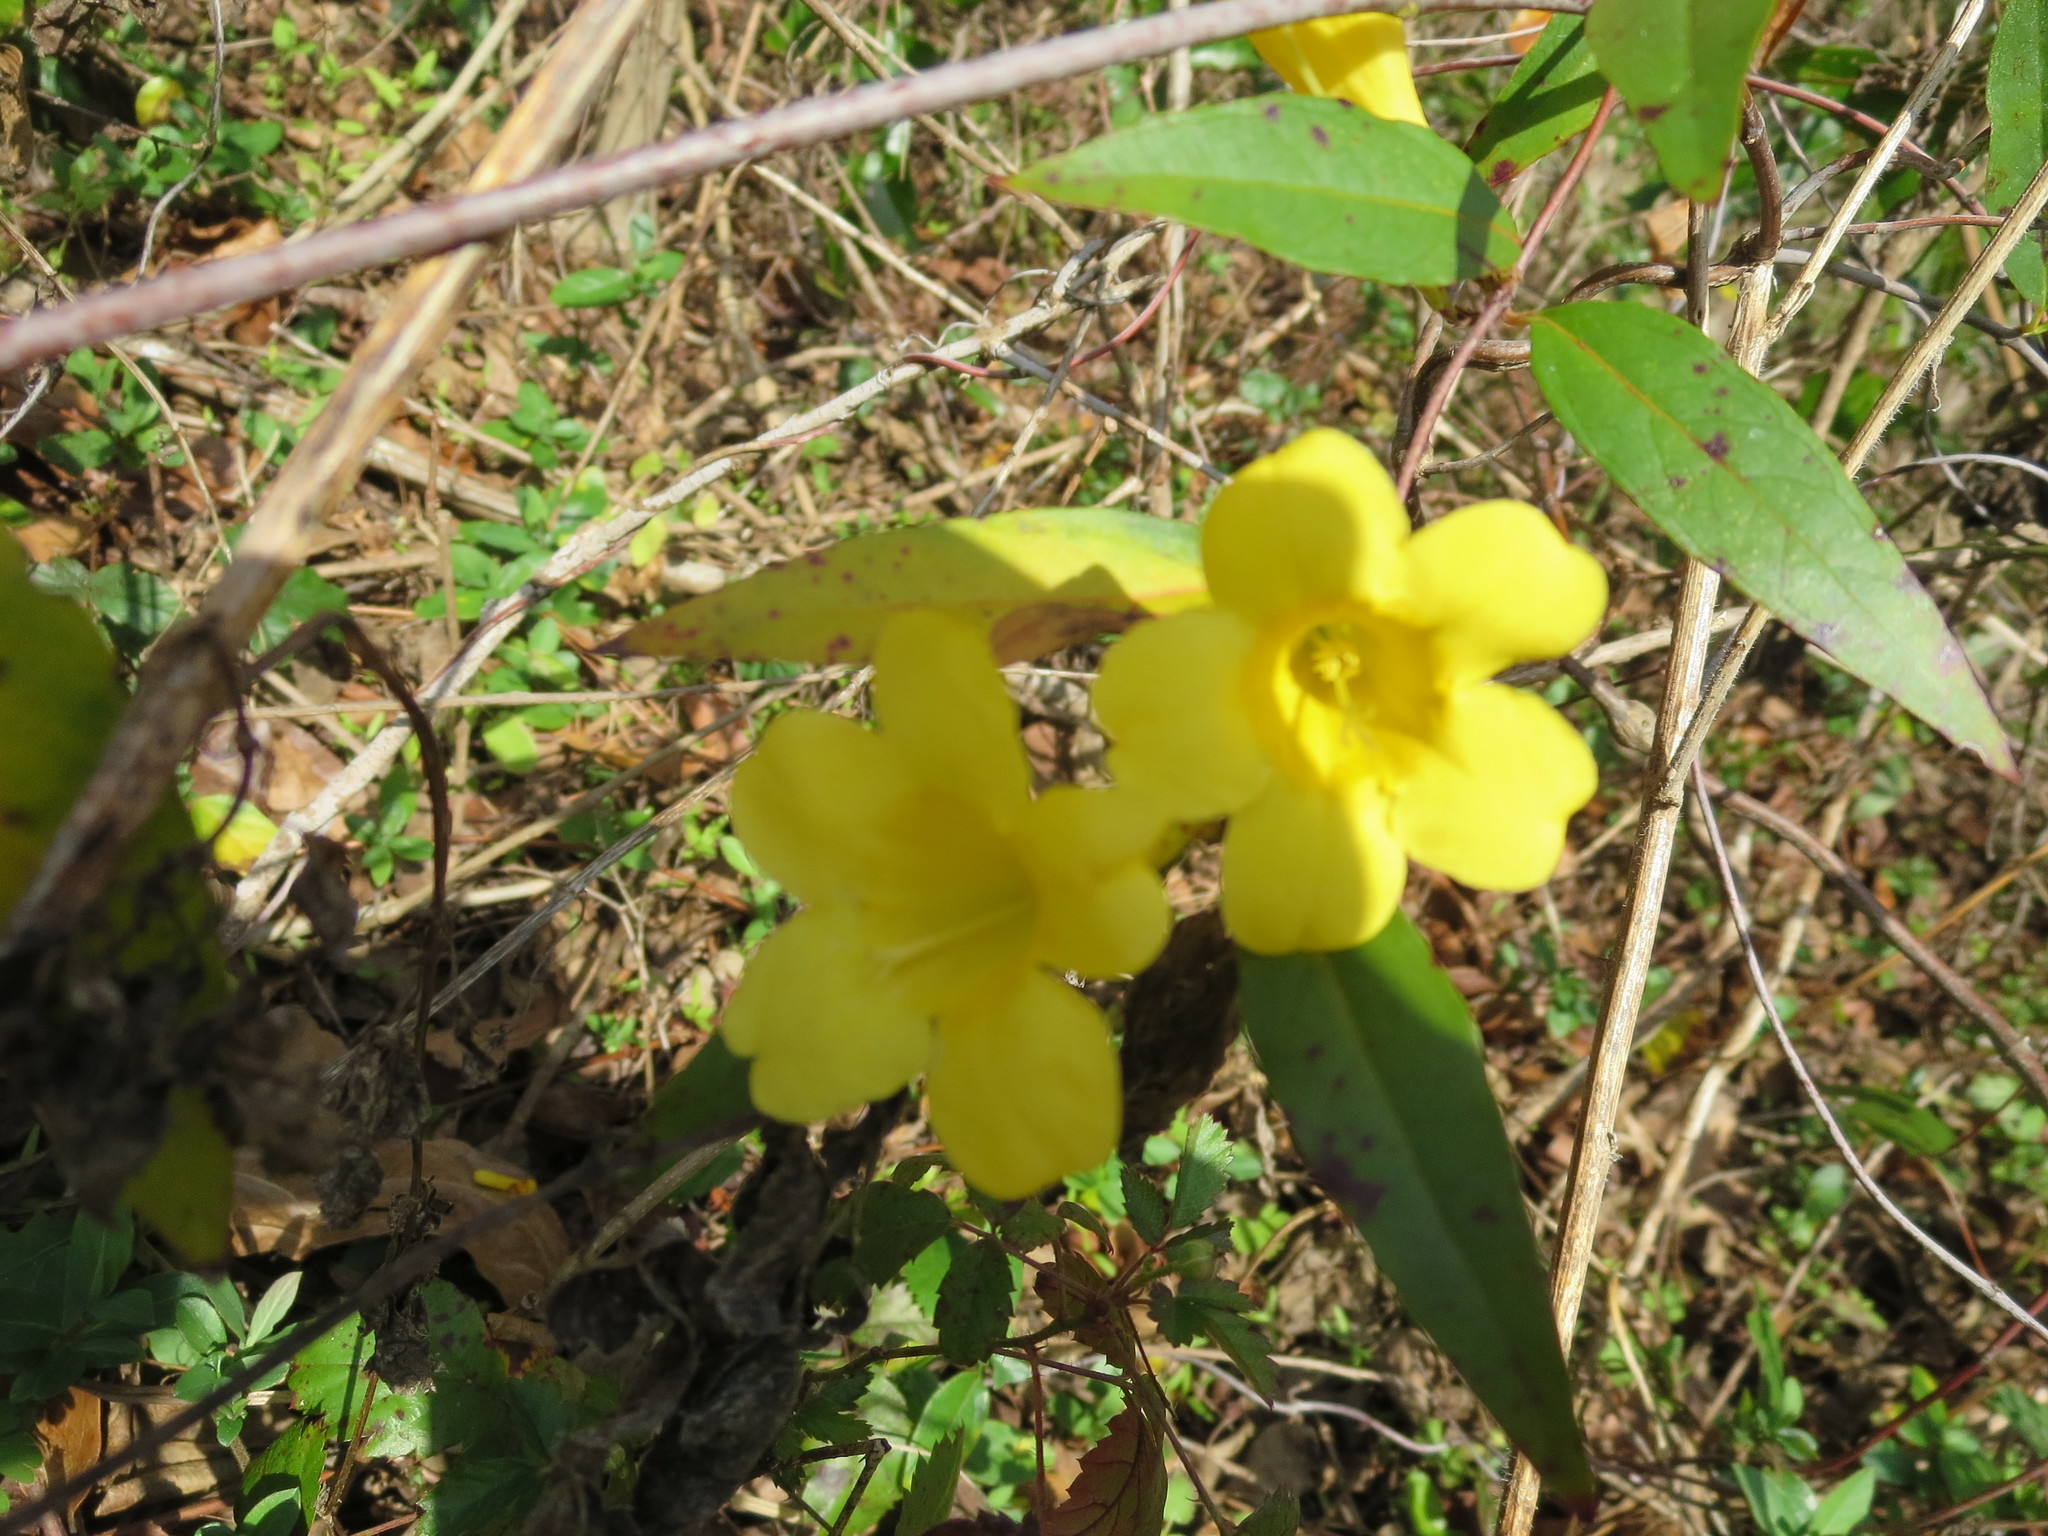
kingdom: Plantae
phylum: Tracheophyta
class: Magnoliopsida
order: Gentianales
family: Gelsemiaceae
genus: Gelsemium
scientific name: Gelsemium sempervirens
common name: Carolina-jasmine
